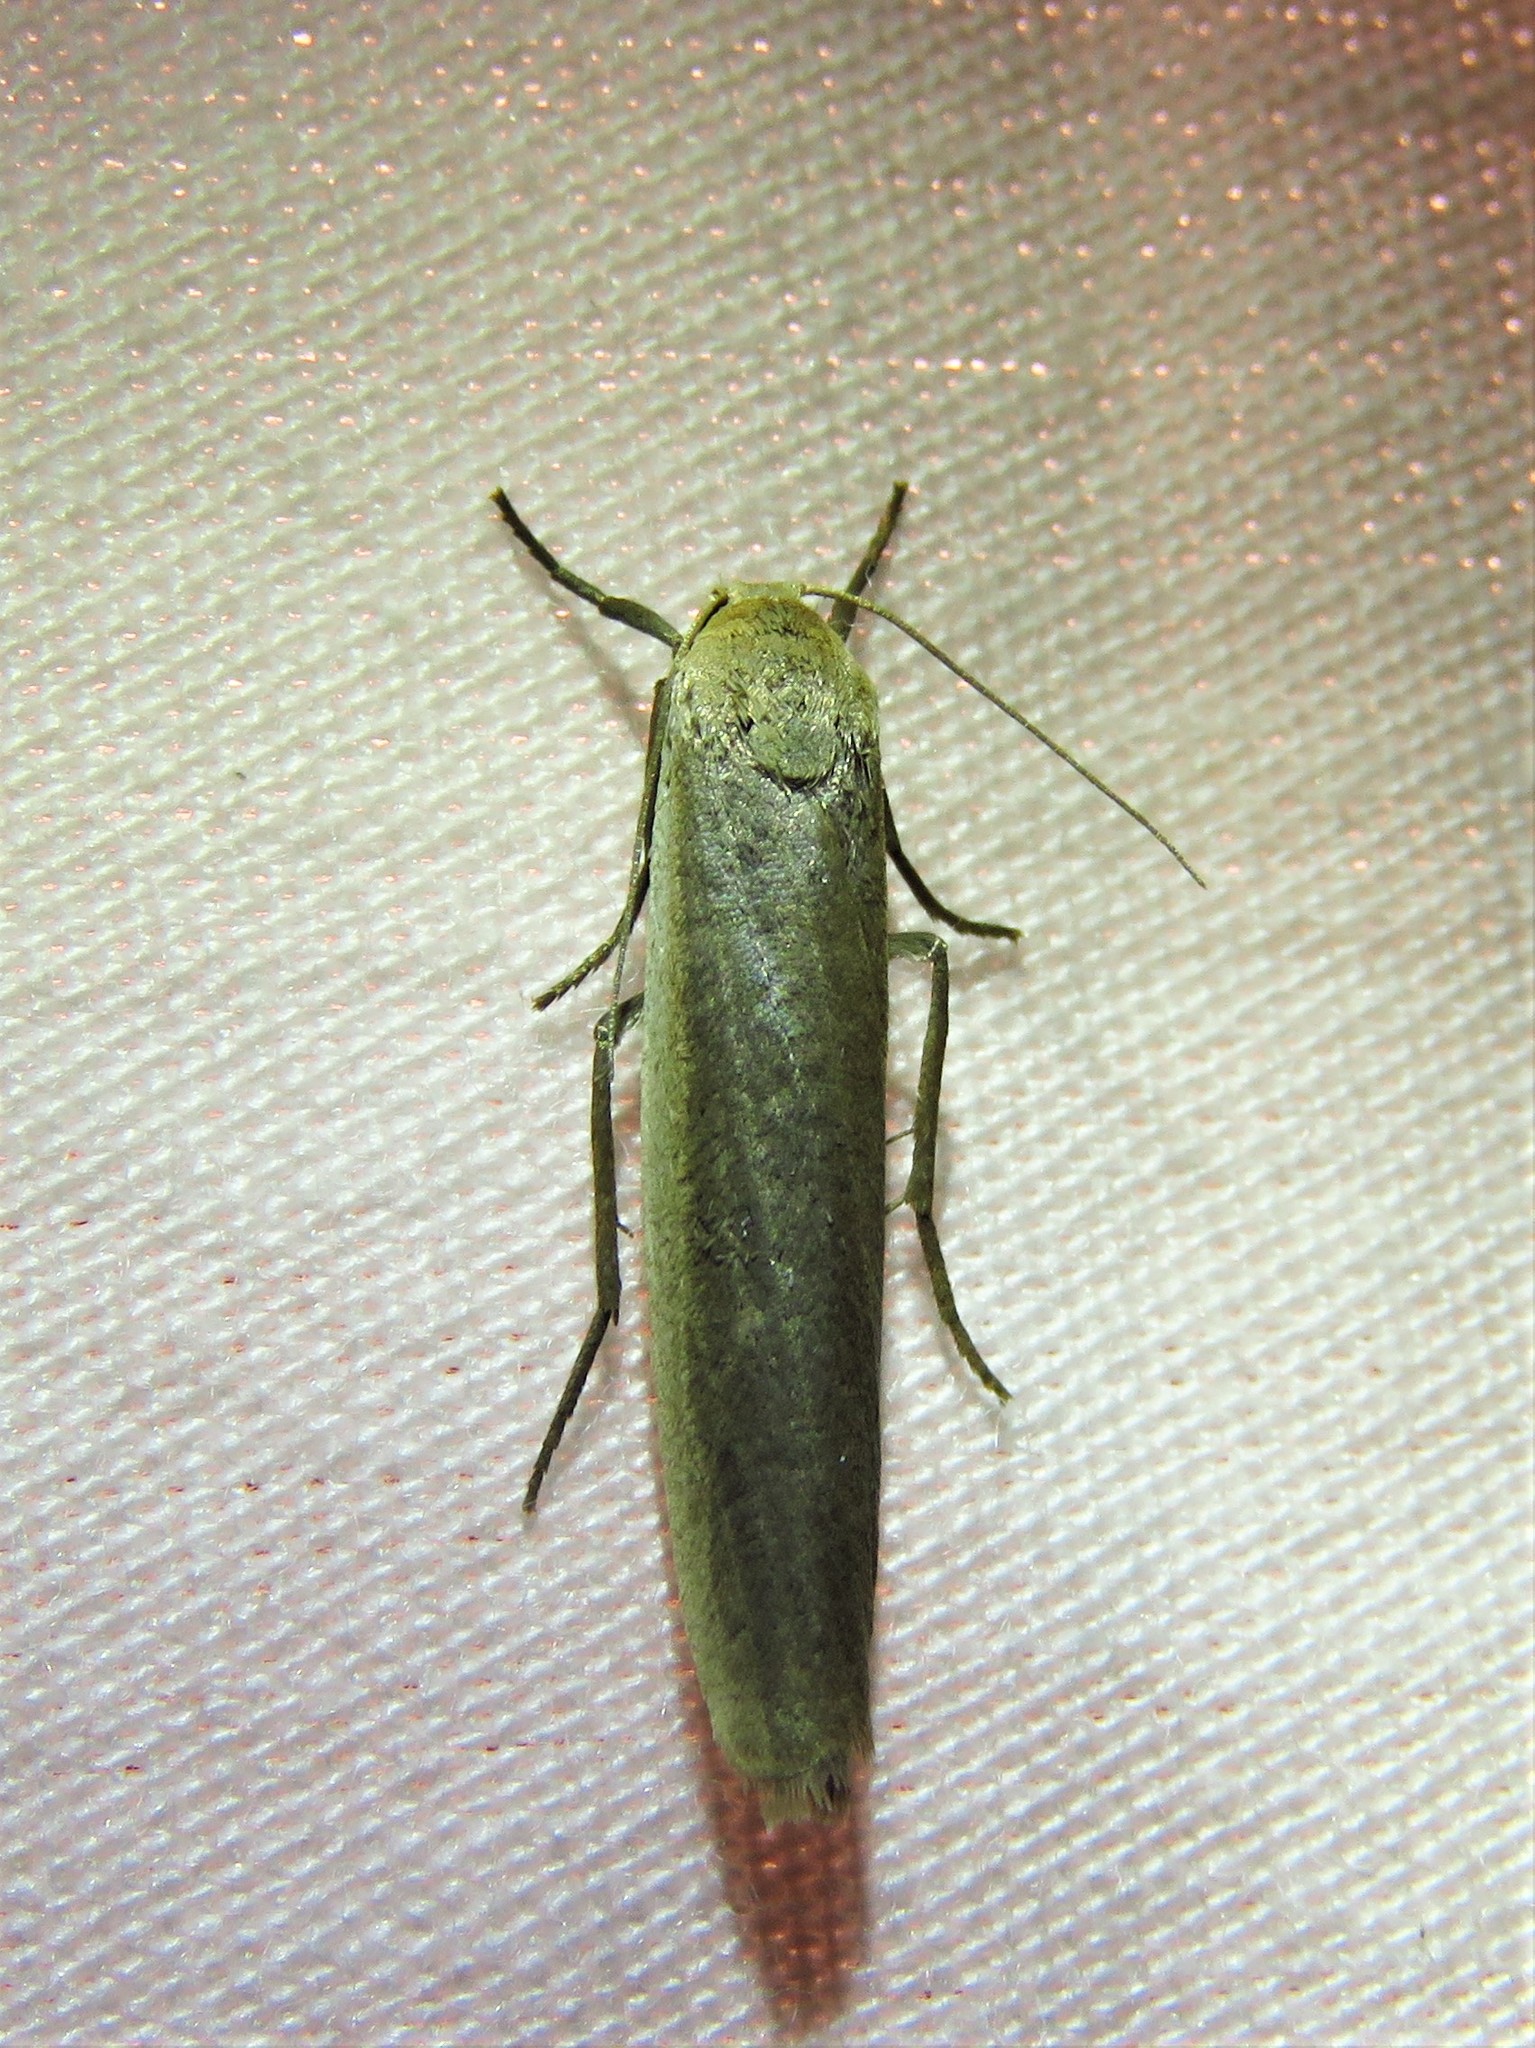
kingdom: Animalia
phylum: Arthropoda
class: Insecta
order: Lepidoptera
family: Erebidae
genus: Crambidia
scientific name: Crambidia myrlosea
